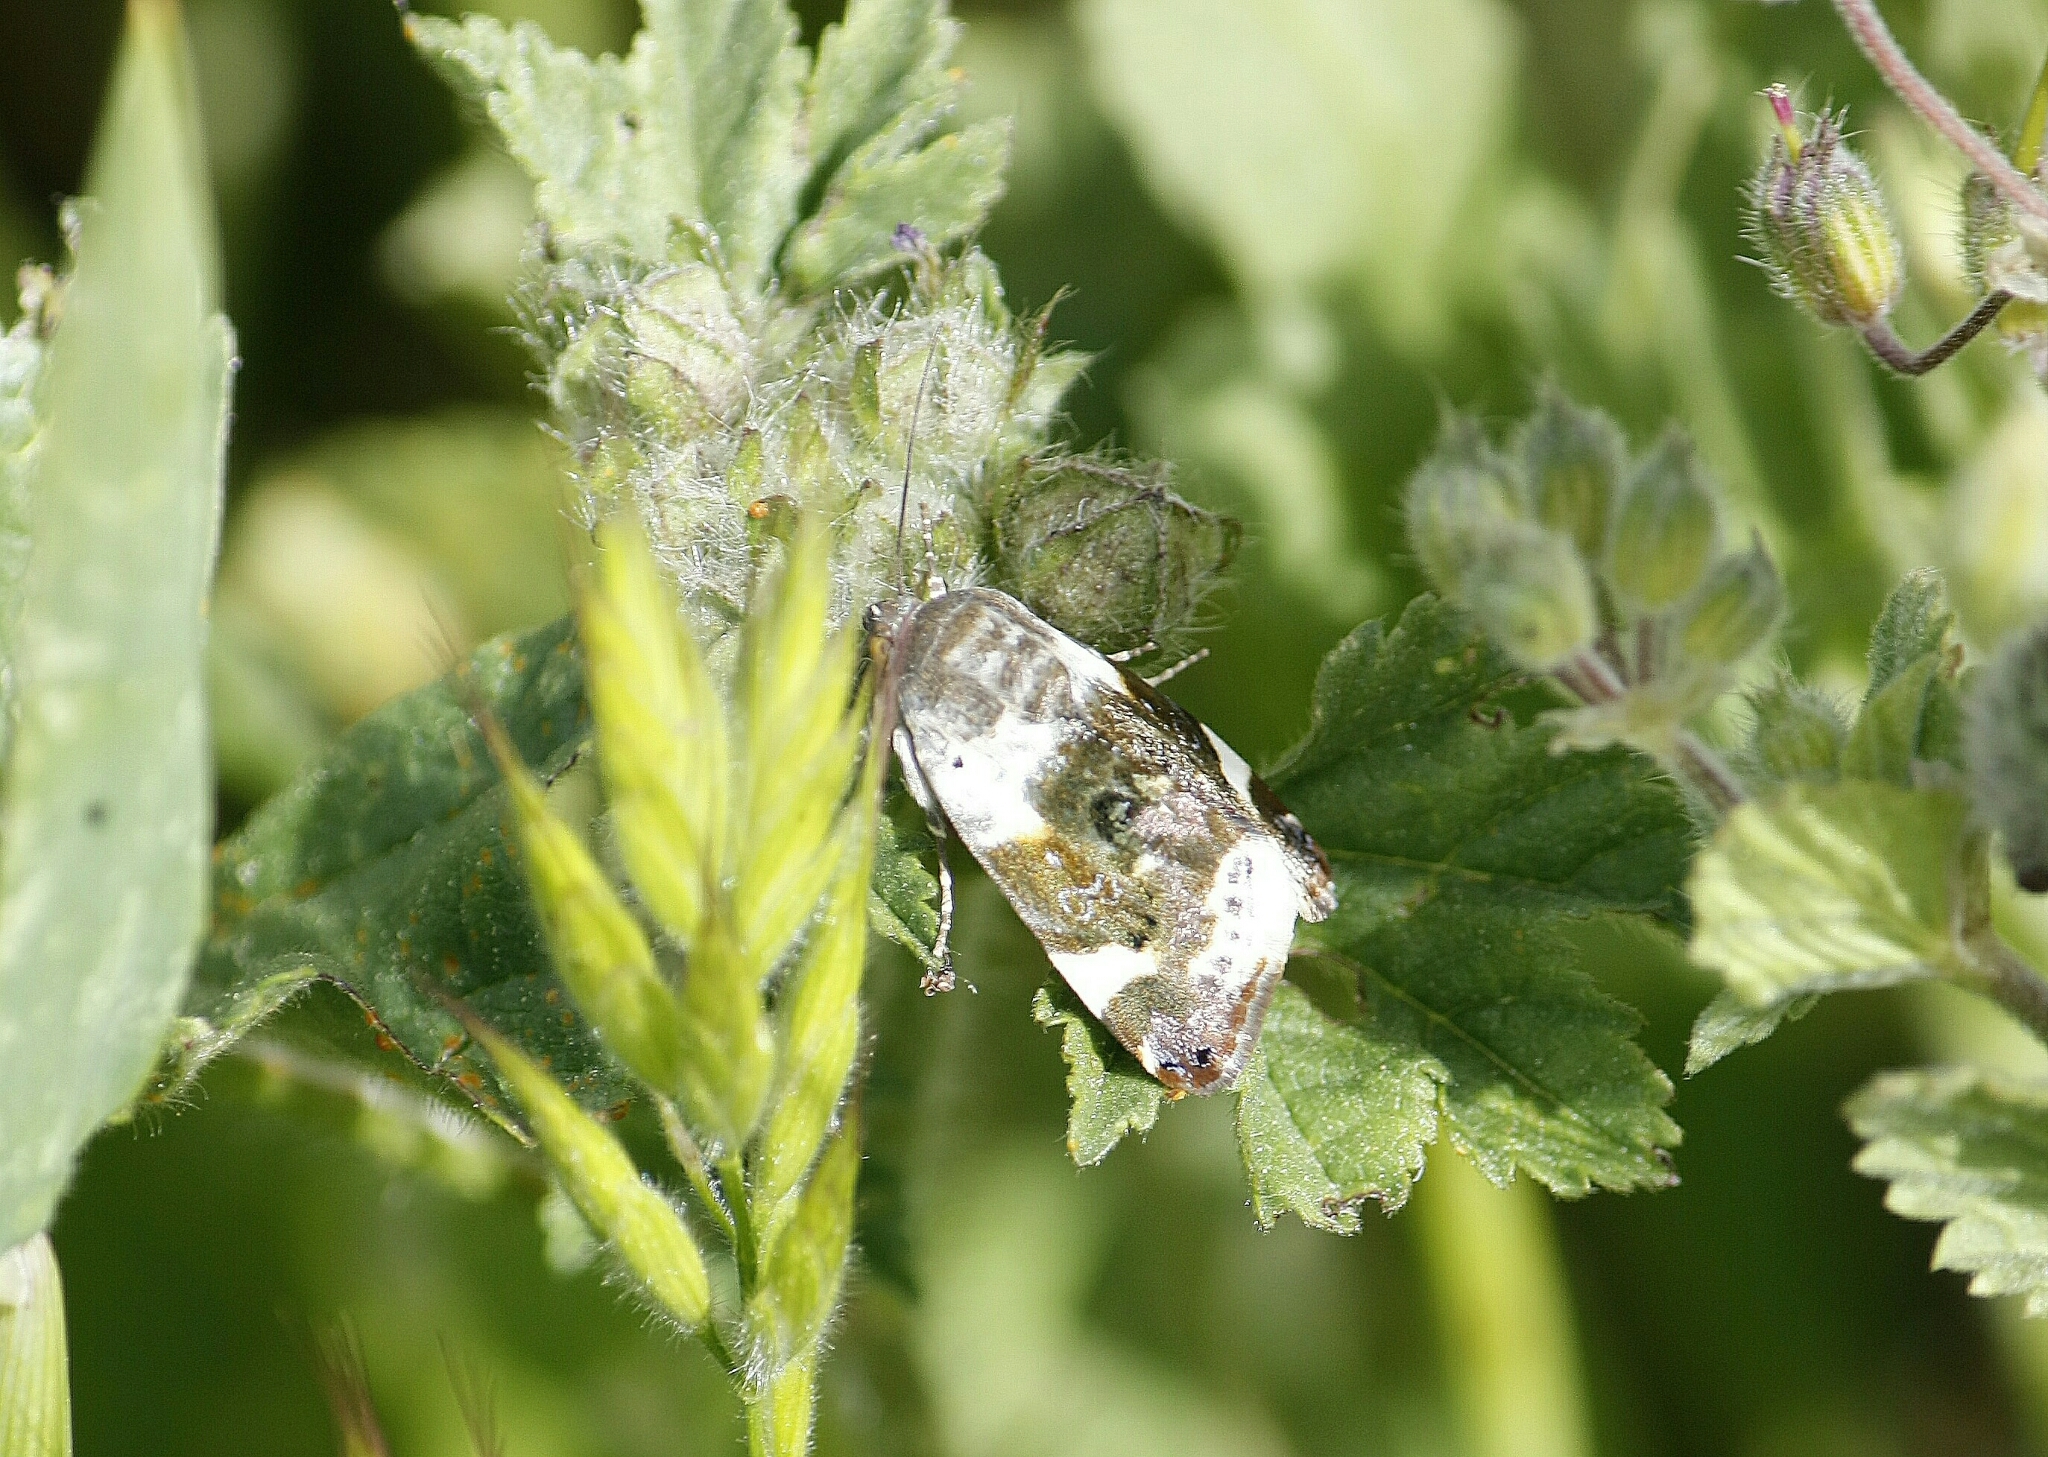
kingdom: Animalia
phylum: Arthropoda
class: Insecta
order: Lepidoptera
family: Noctuidae
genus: Acontia
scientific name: Acontia lucida
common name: Pale shoulder
